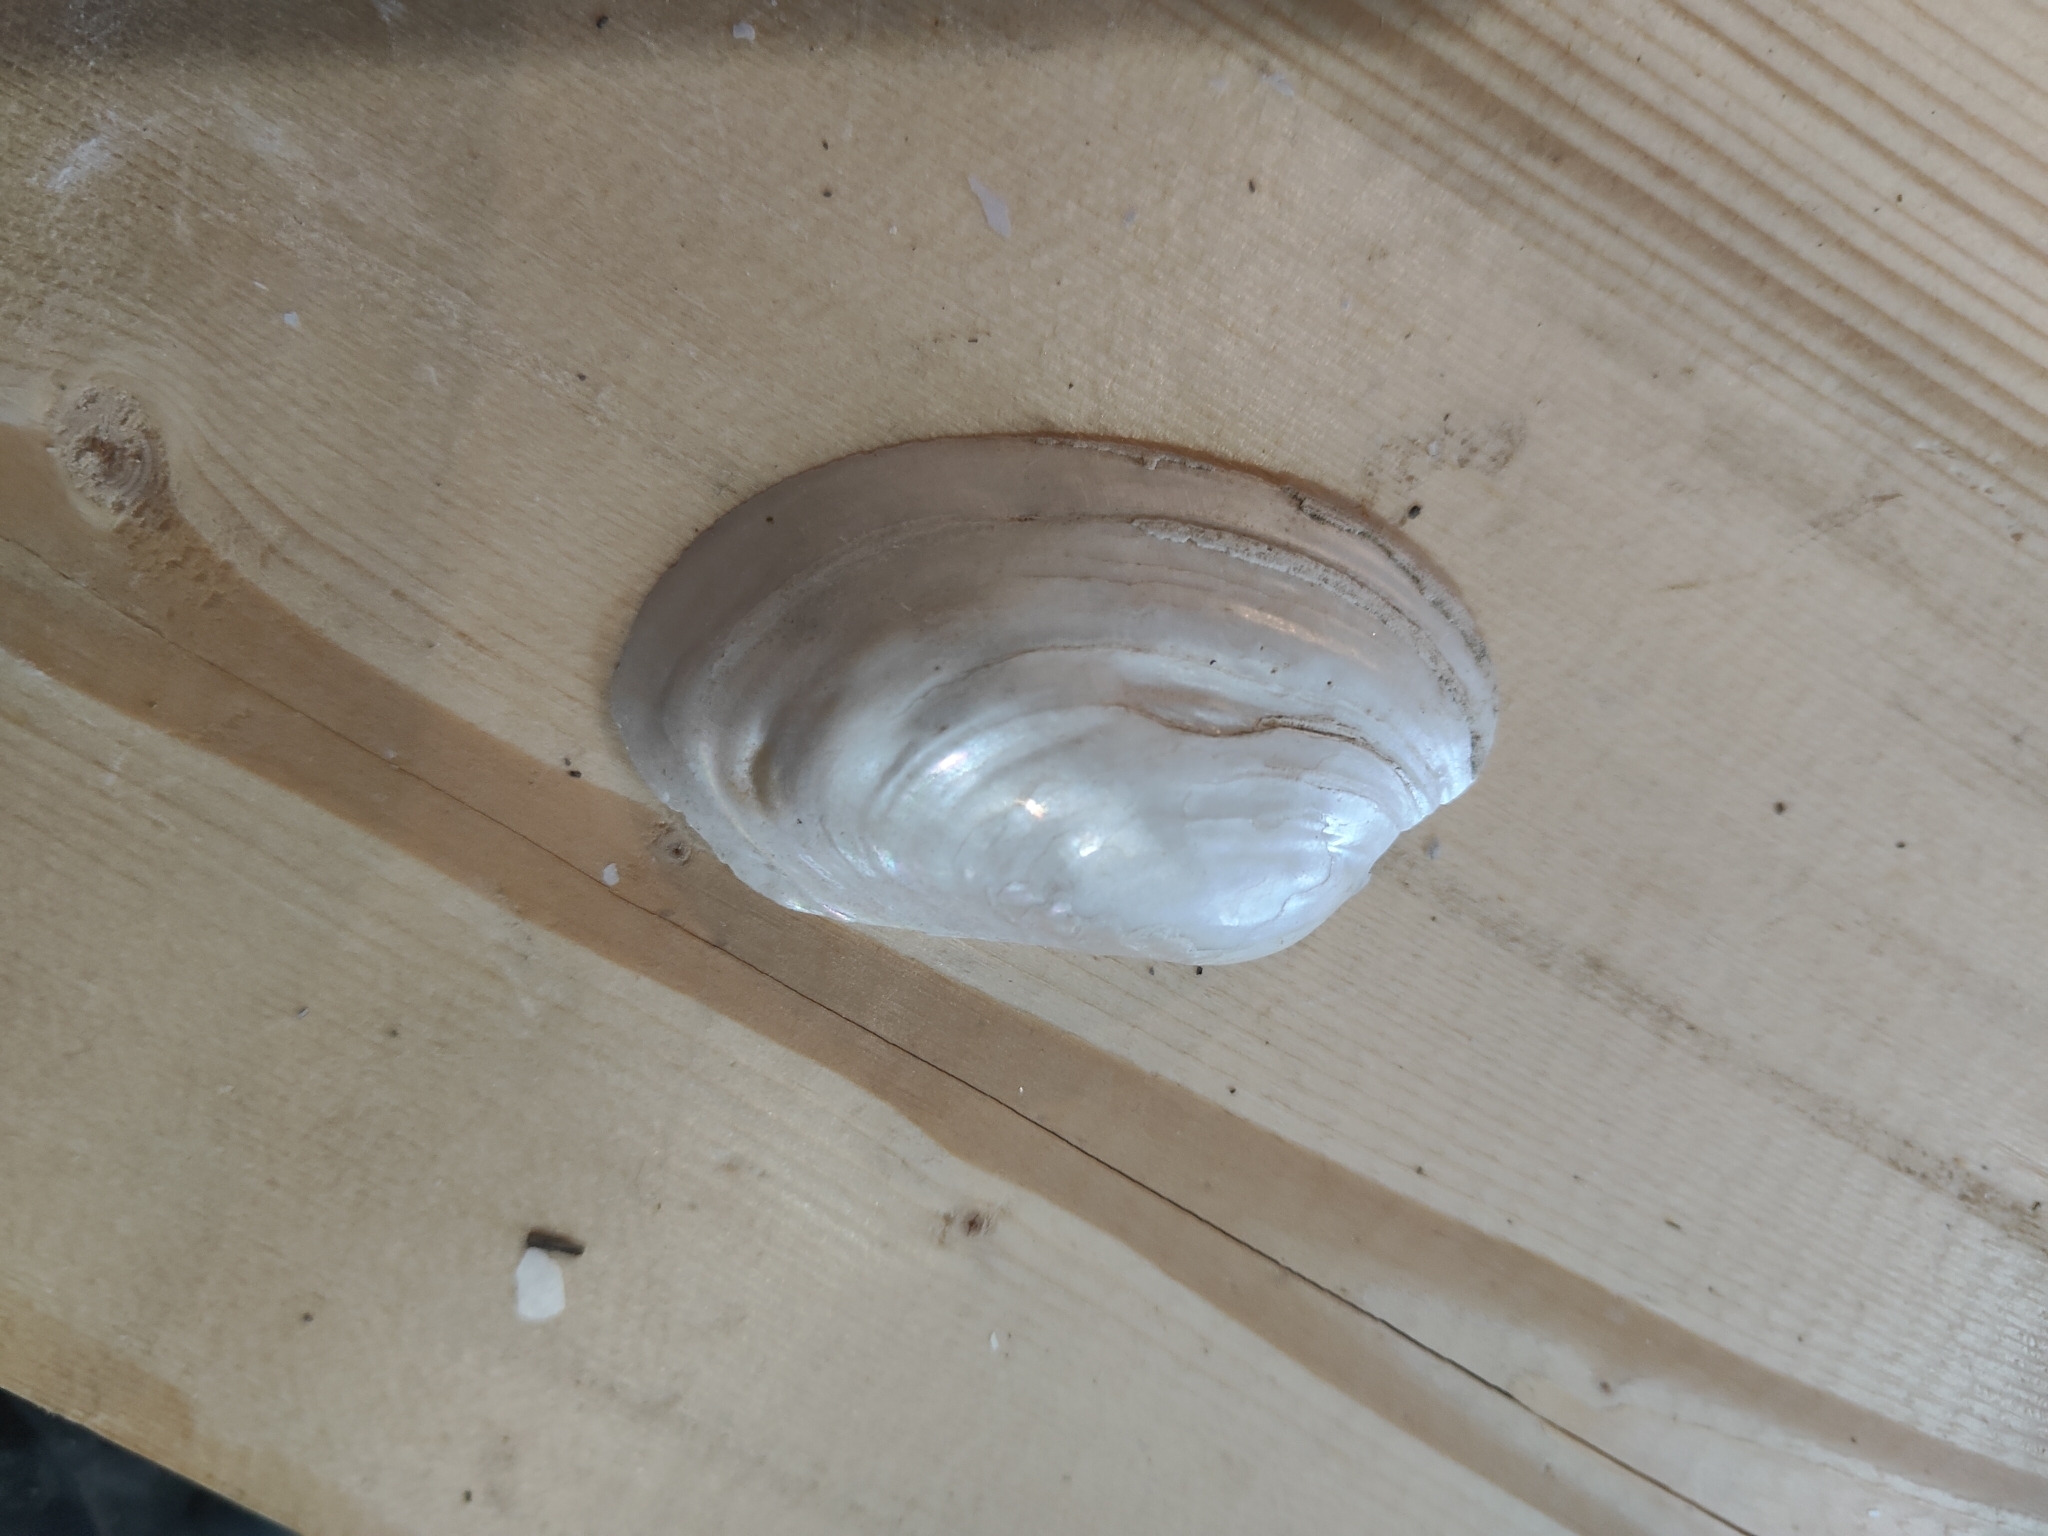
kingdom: Animalia
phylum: Mollusca
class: Bivalvia
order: Unionida
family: Unionidae
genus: Lampsilis
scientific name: Lampsilis siliquoidea
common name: Fatmucket
